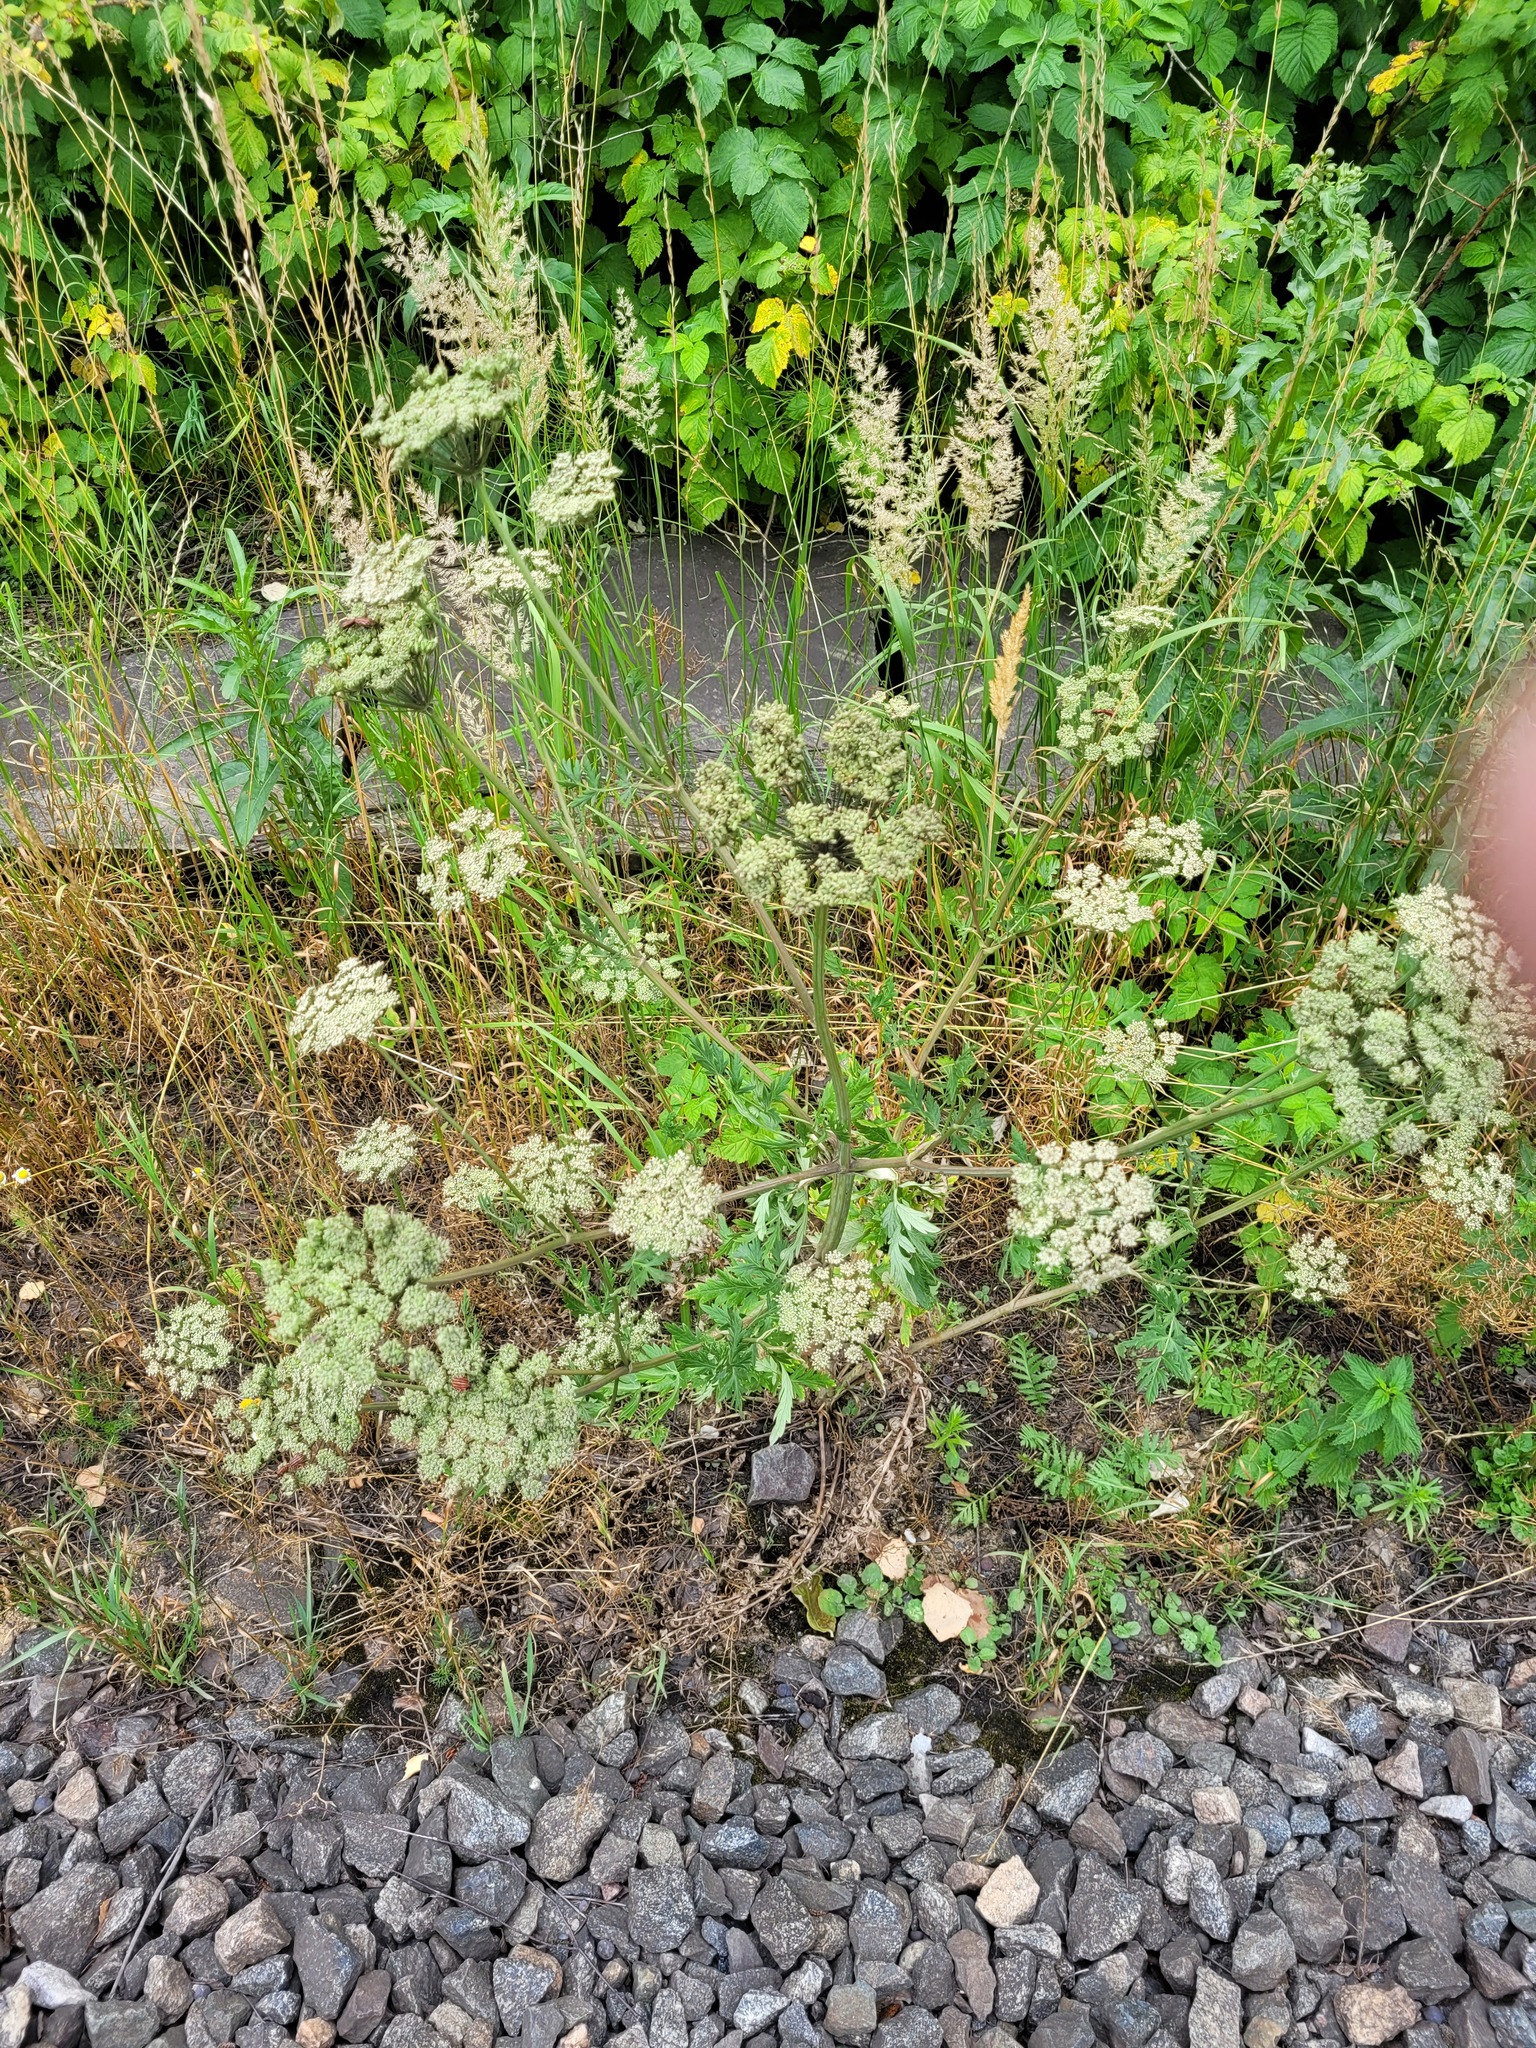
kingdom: Plantae
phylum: Tracheophyta
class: Magnoliopsida
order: Apiales
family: Apiaceae
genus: Seseli
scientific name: Seseli libanotis
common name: Mooncarrot
